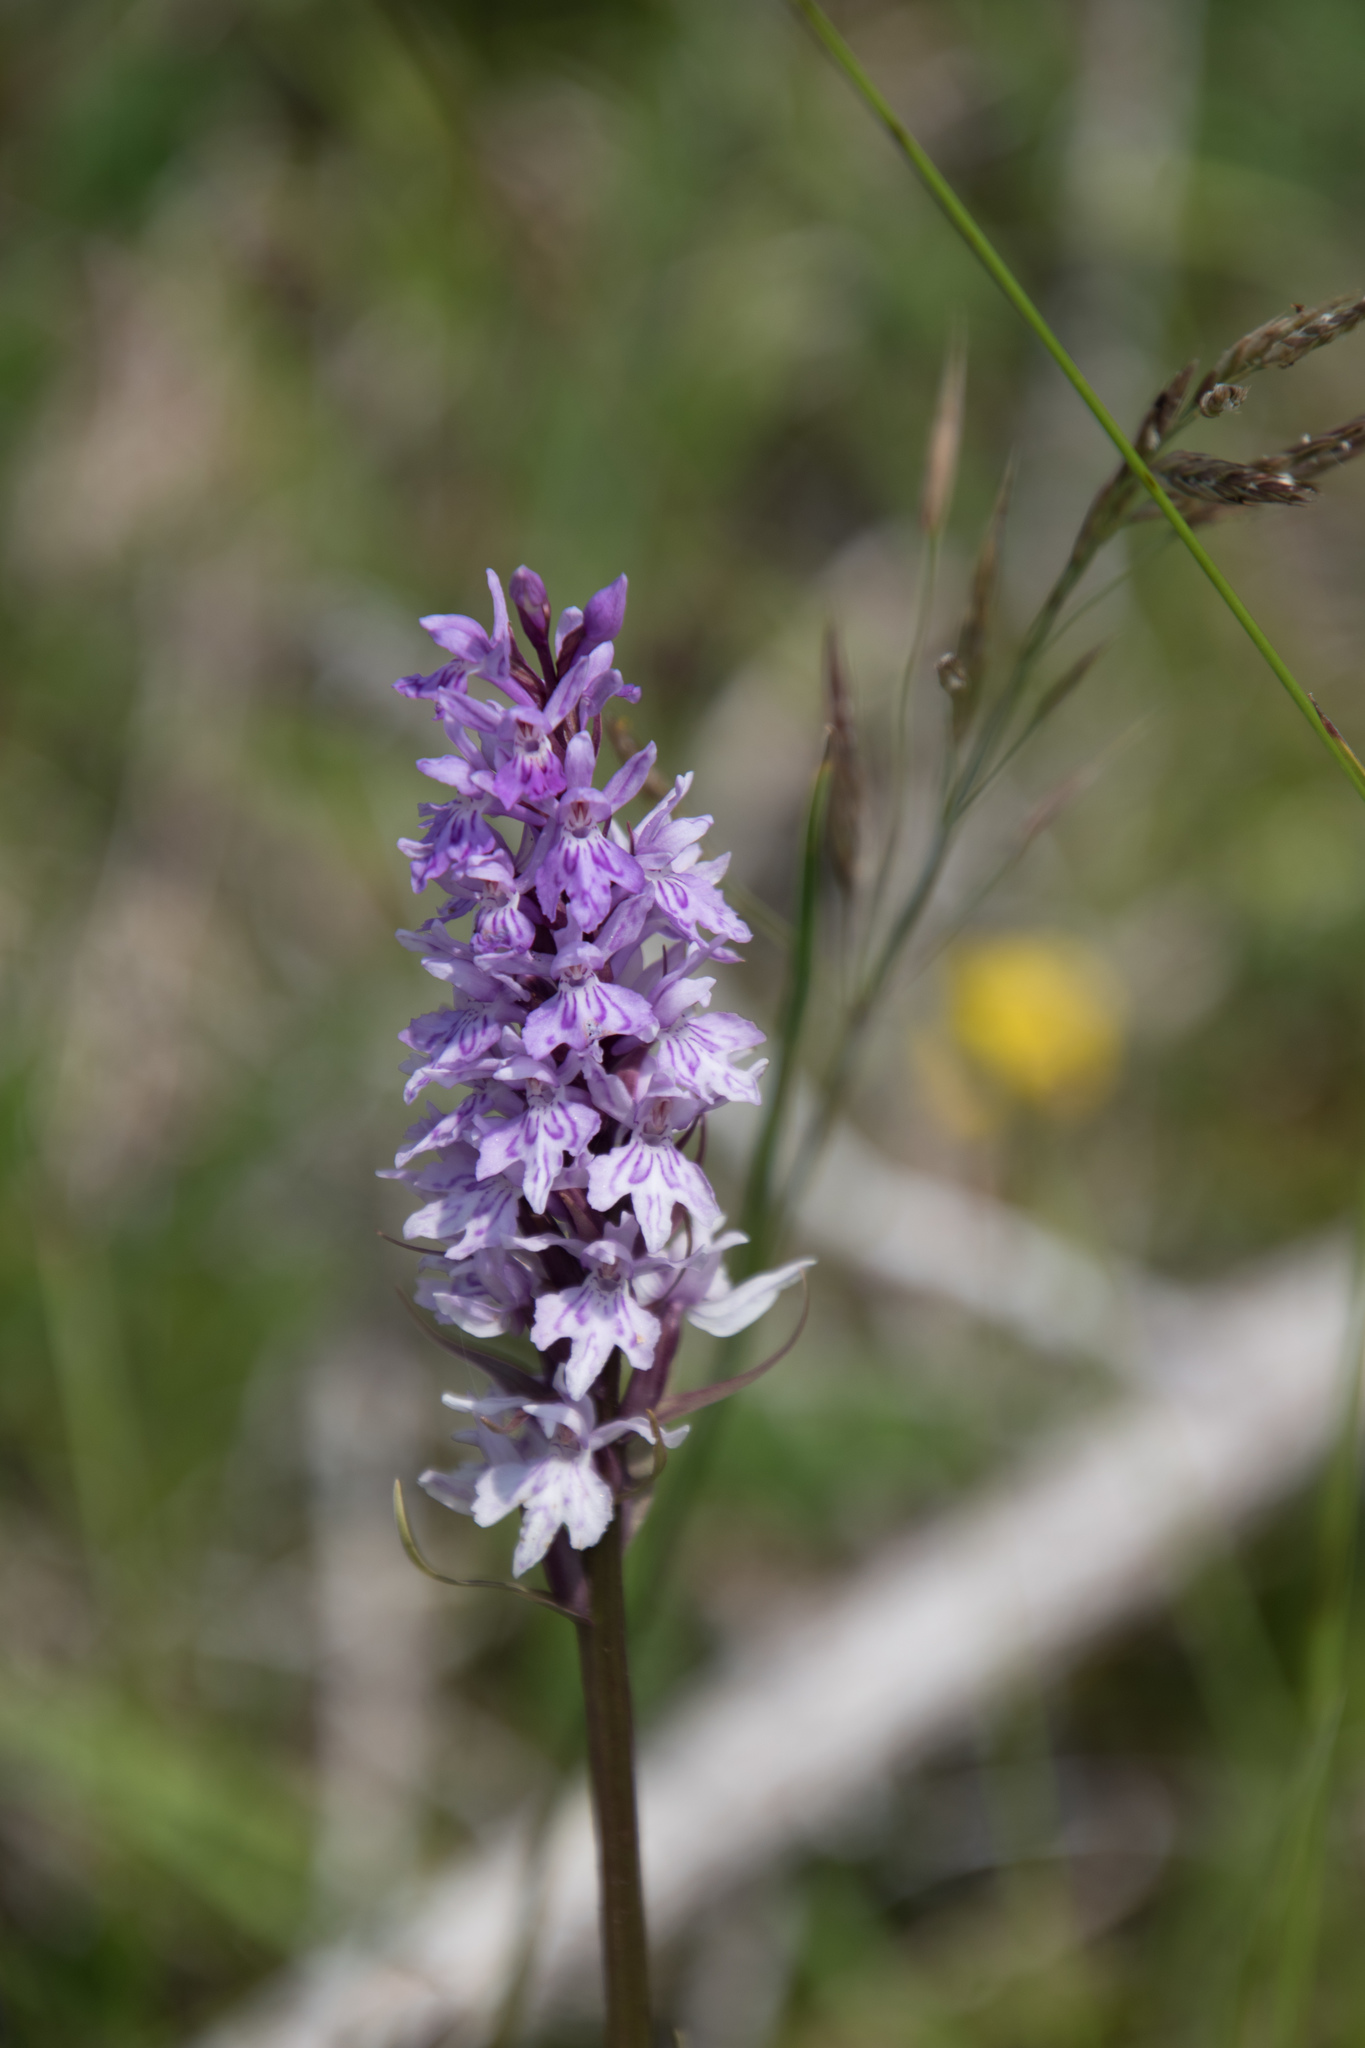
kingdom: Plantae
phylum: Tracheophyta
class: Liliopsida
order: Asparagales
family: Orchidaceae
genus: Dactylorhiza
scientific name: Dactylorhiza maculata
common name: Heath spotted-orchid
